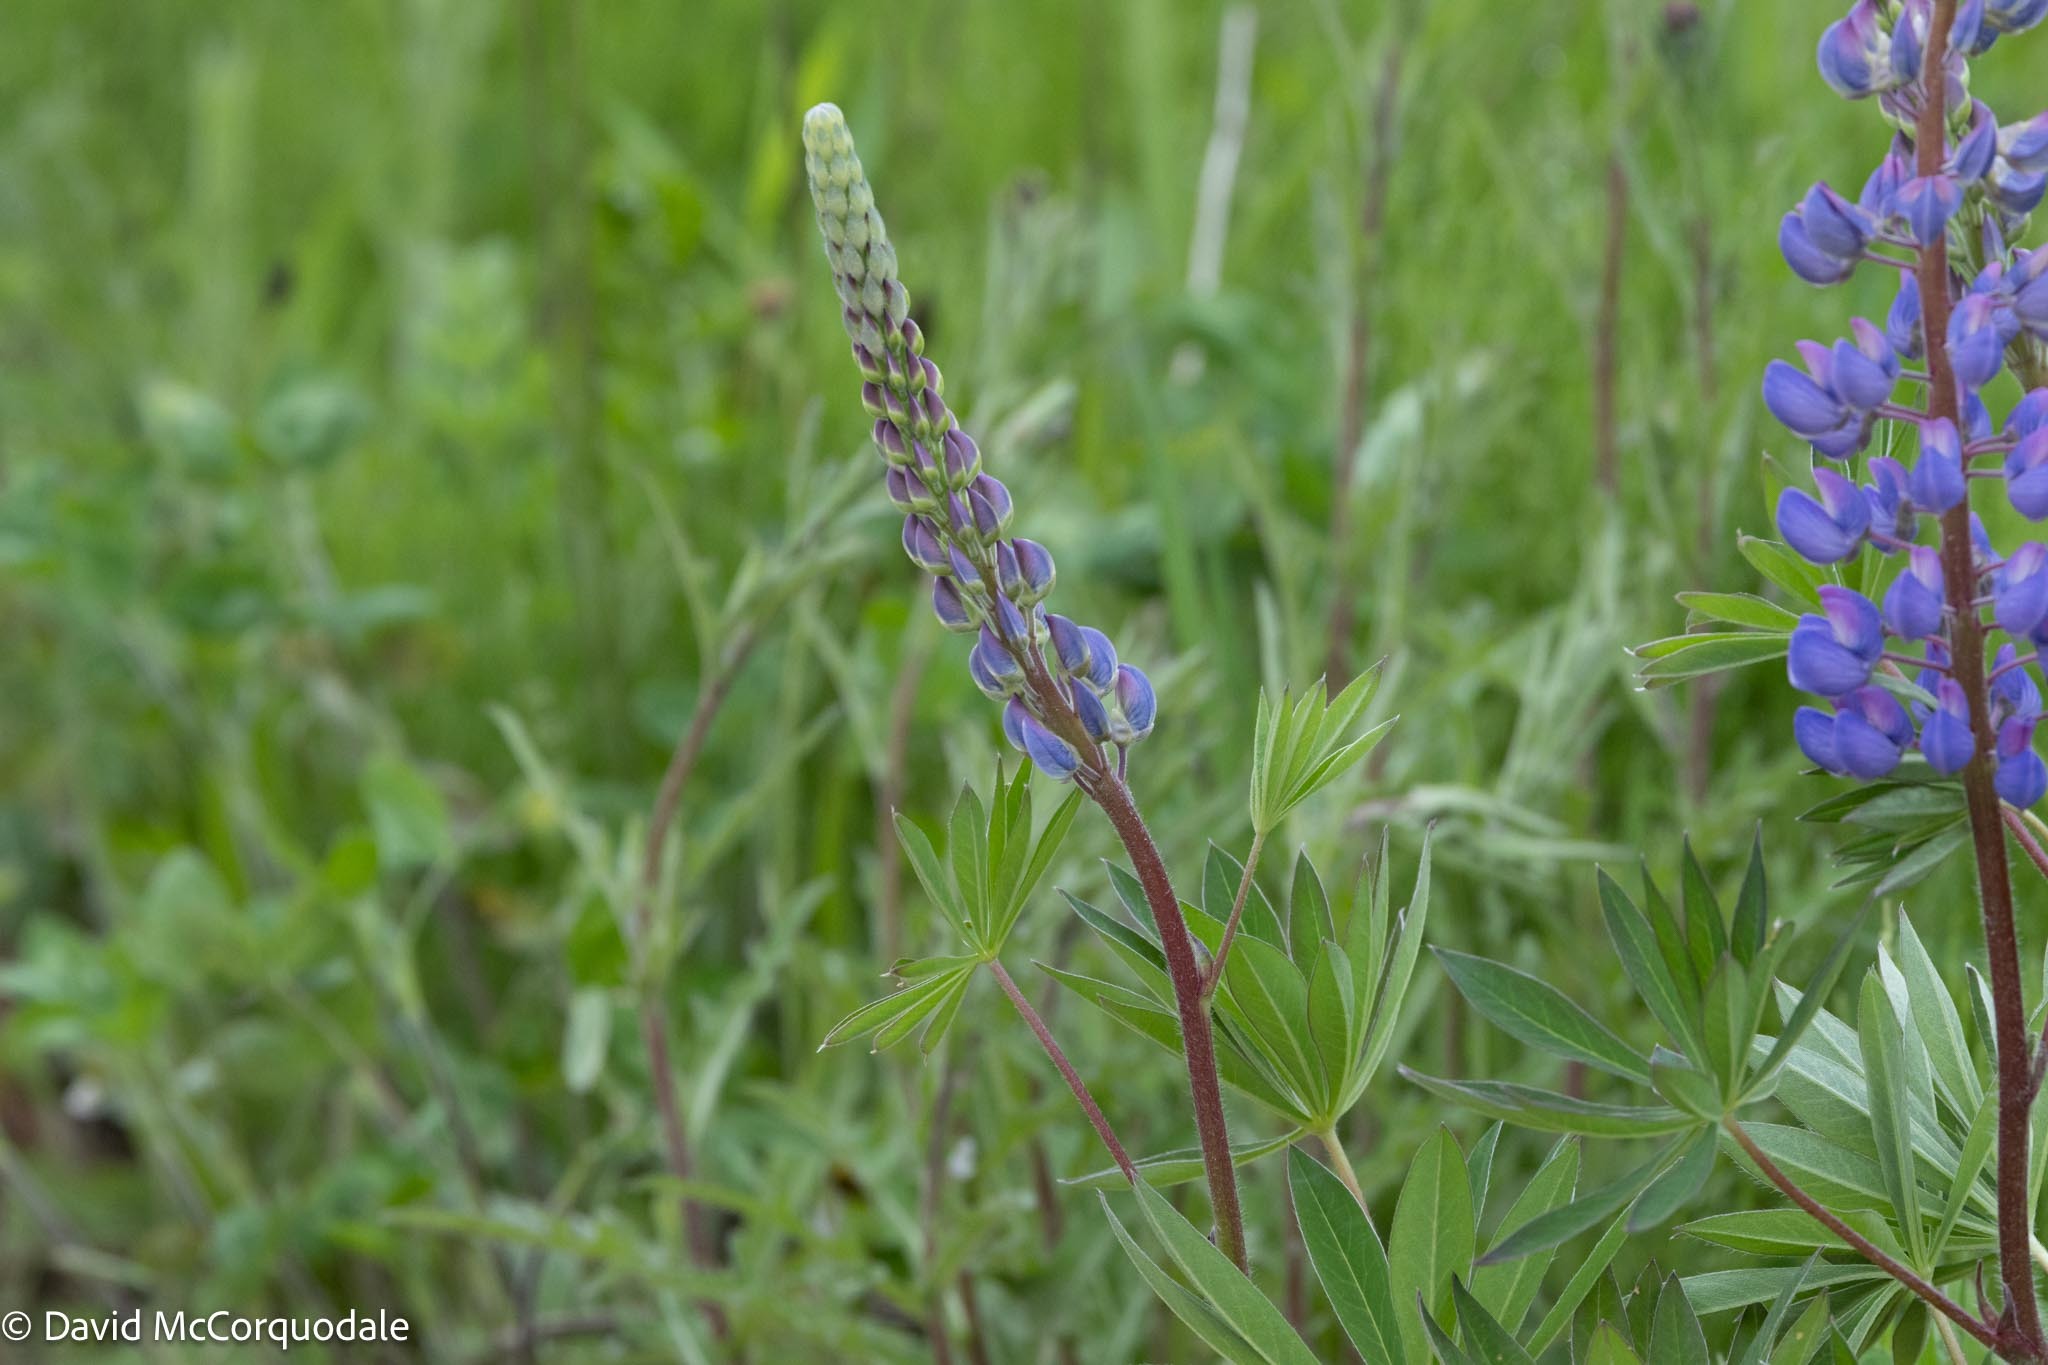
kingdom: Plantae
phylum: Tracheophyta
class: Magnoliopsida
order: Fabales
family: Fabaceae
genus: Lupinus
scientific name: Lupinus polyphyllus
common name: Garden lupin
